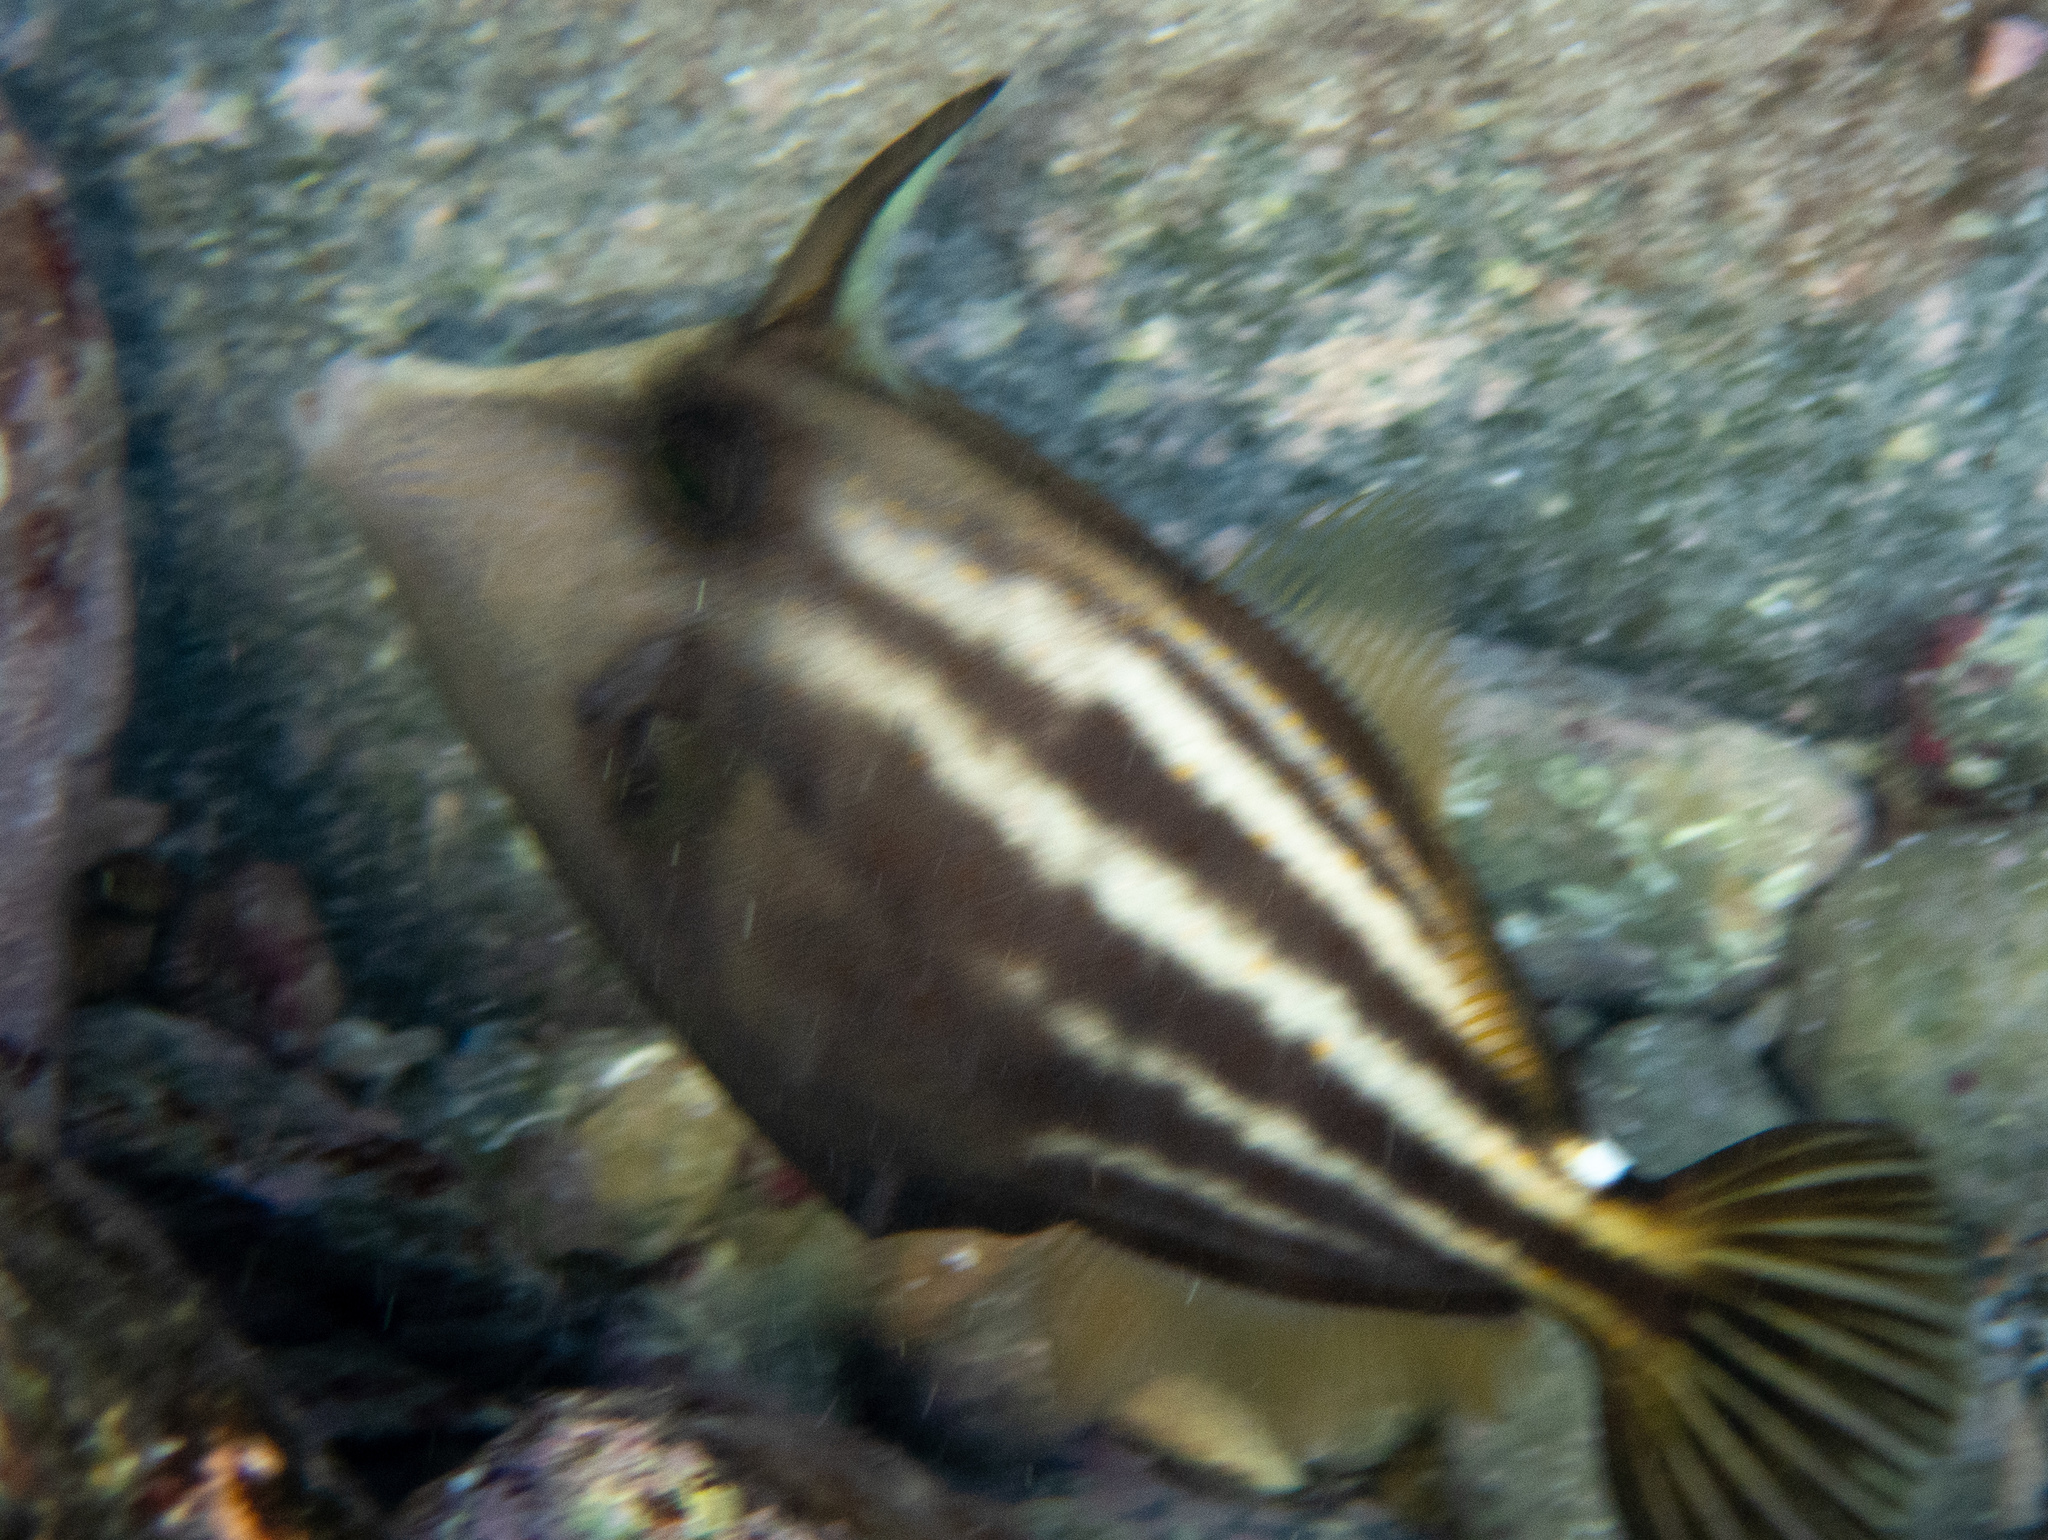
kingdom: Animalia
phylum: Chordata
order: Tetraodontiformes
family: Monacanthidae
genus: Cantherhines
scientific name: Cantherhines pullus
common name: Orangespotted filefish
